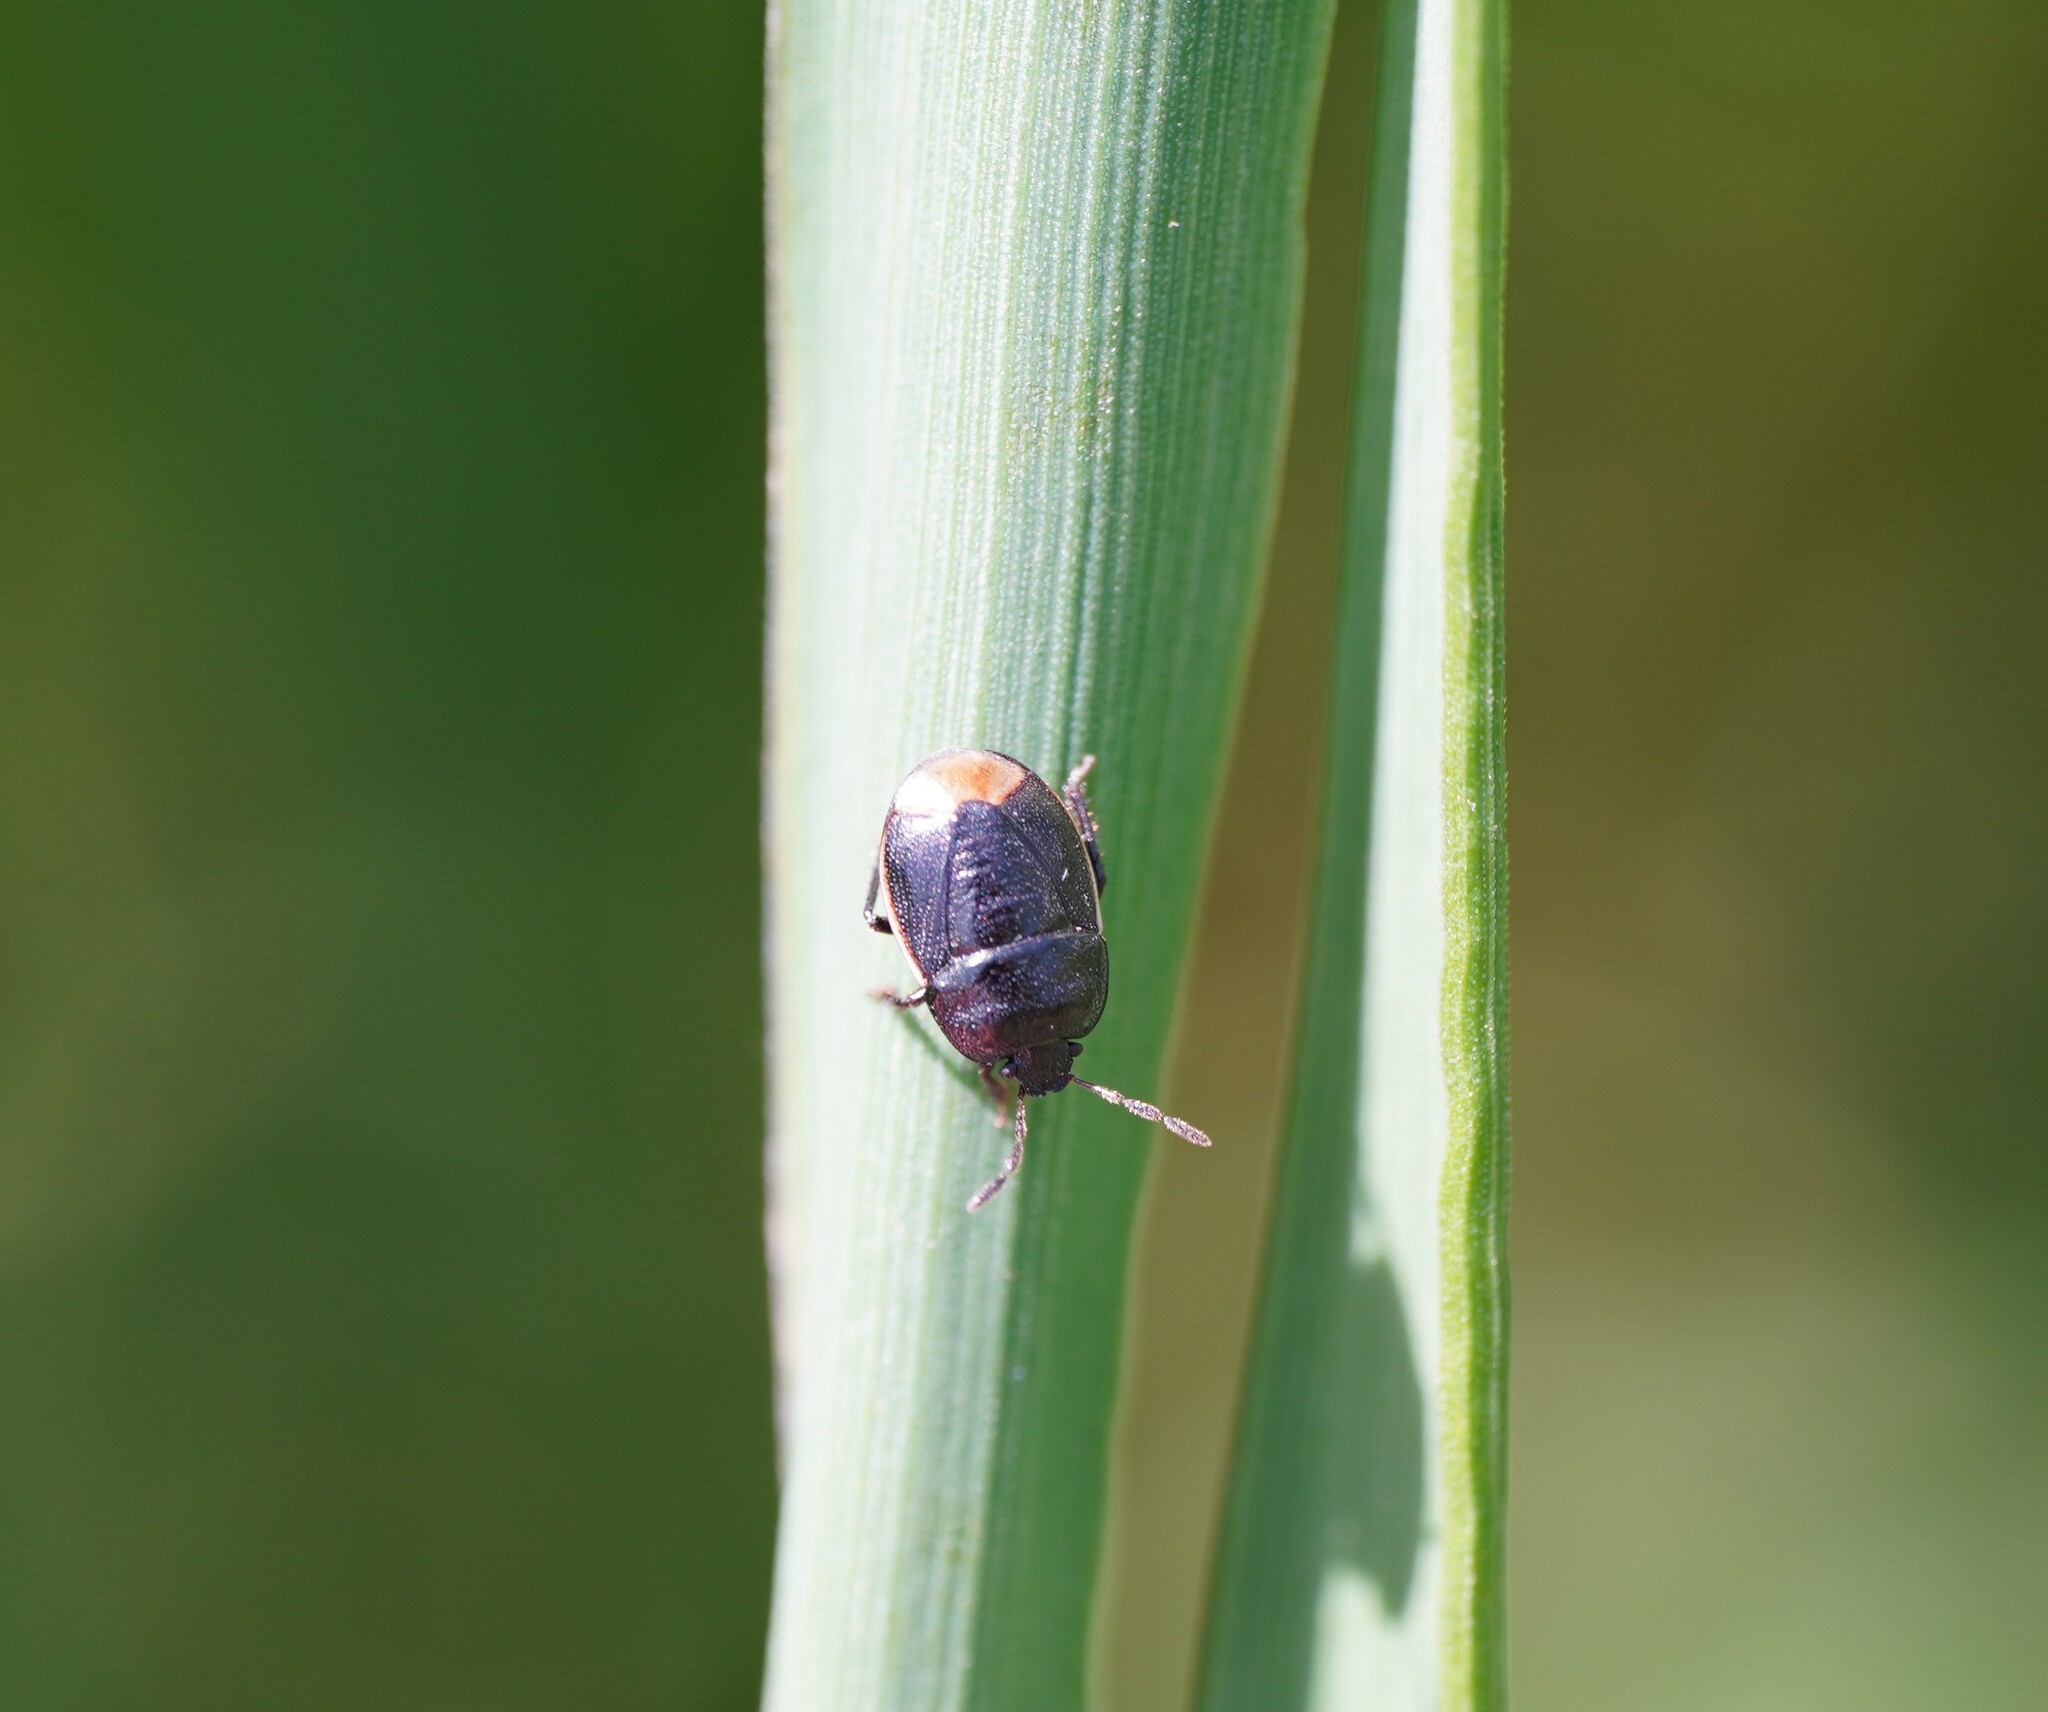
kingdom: Animalia
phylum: Arthropoda
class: Insecta
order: Hemiptera
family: Cydnidae
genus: Legnotus
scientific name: Legnotus limbosus
